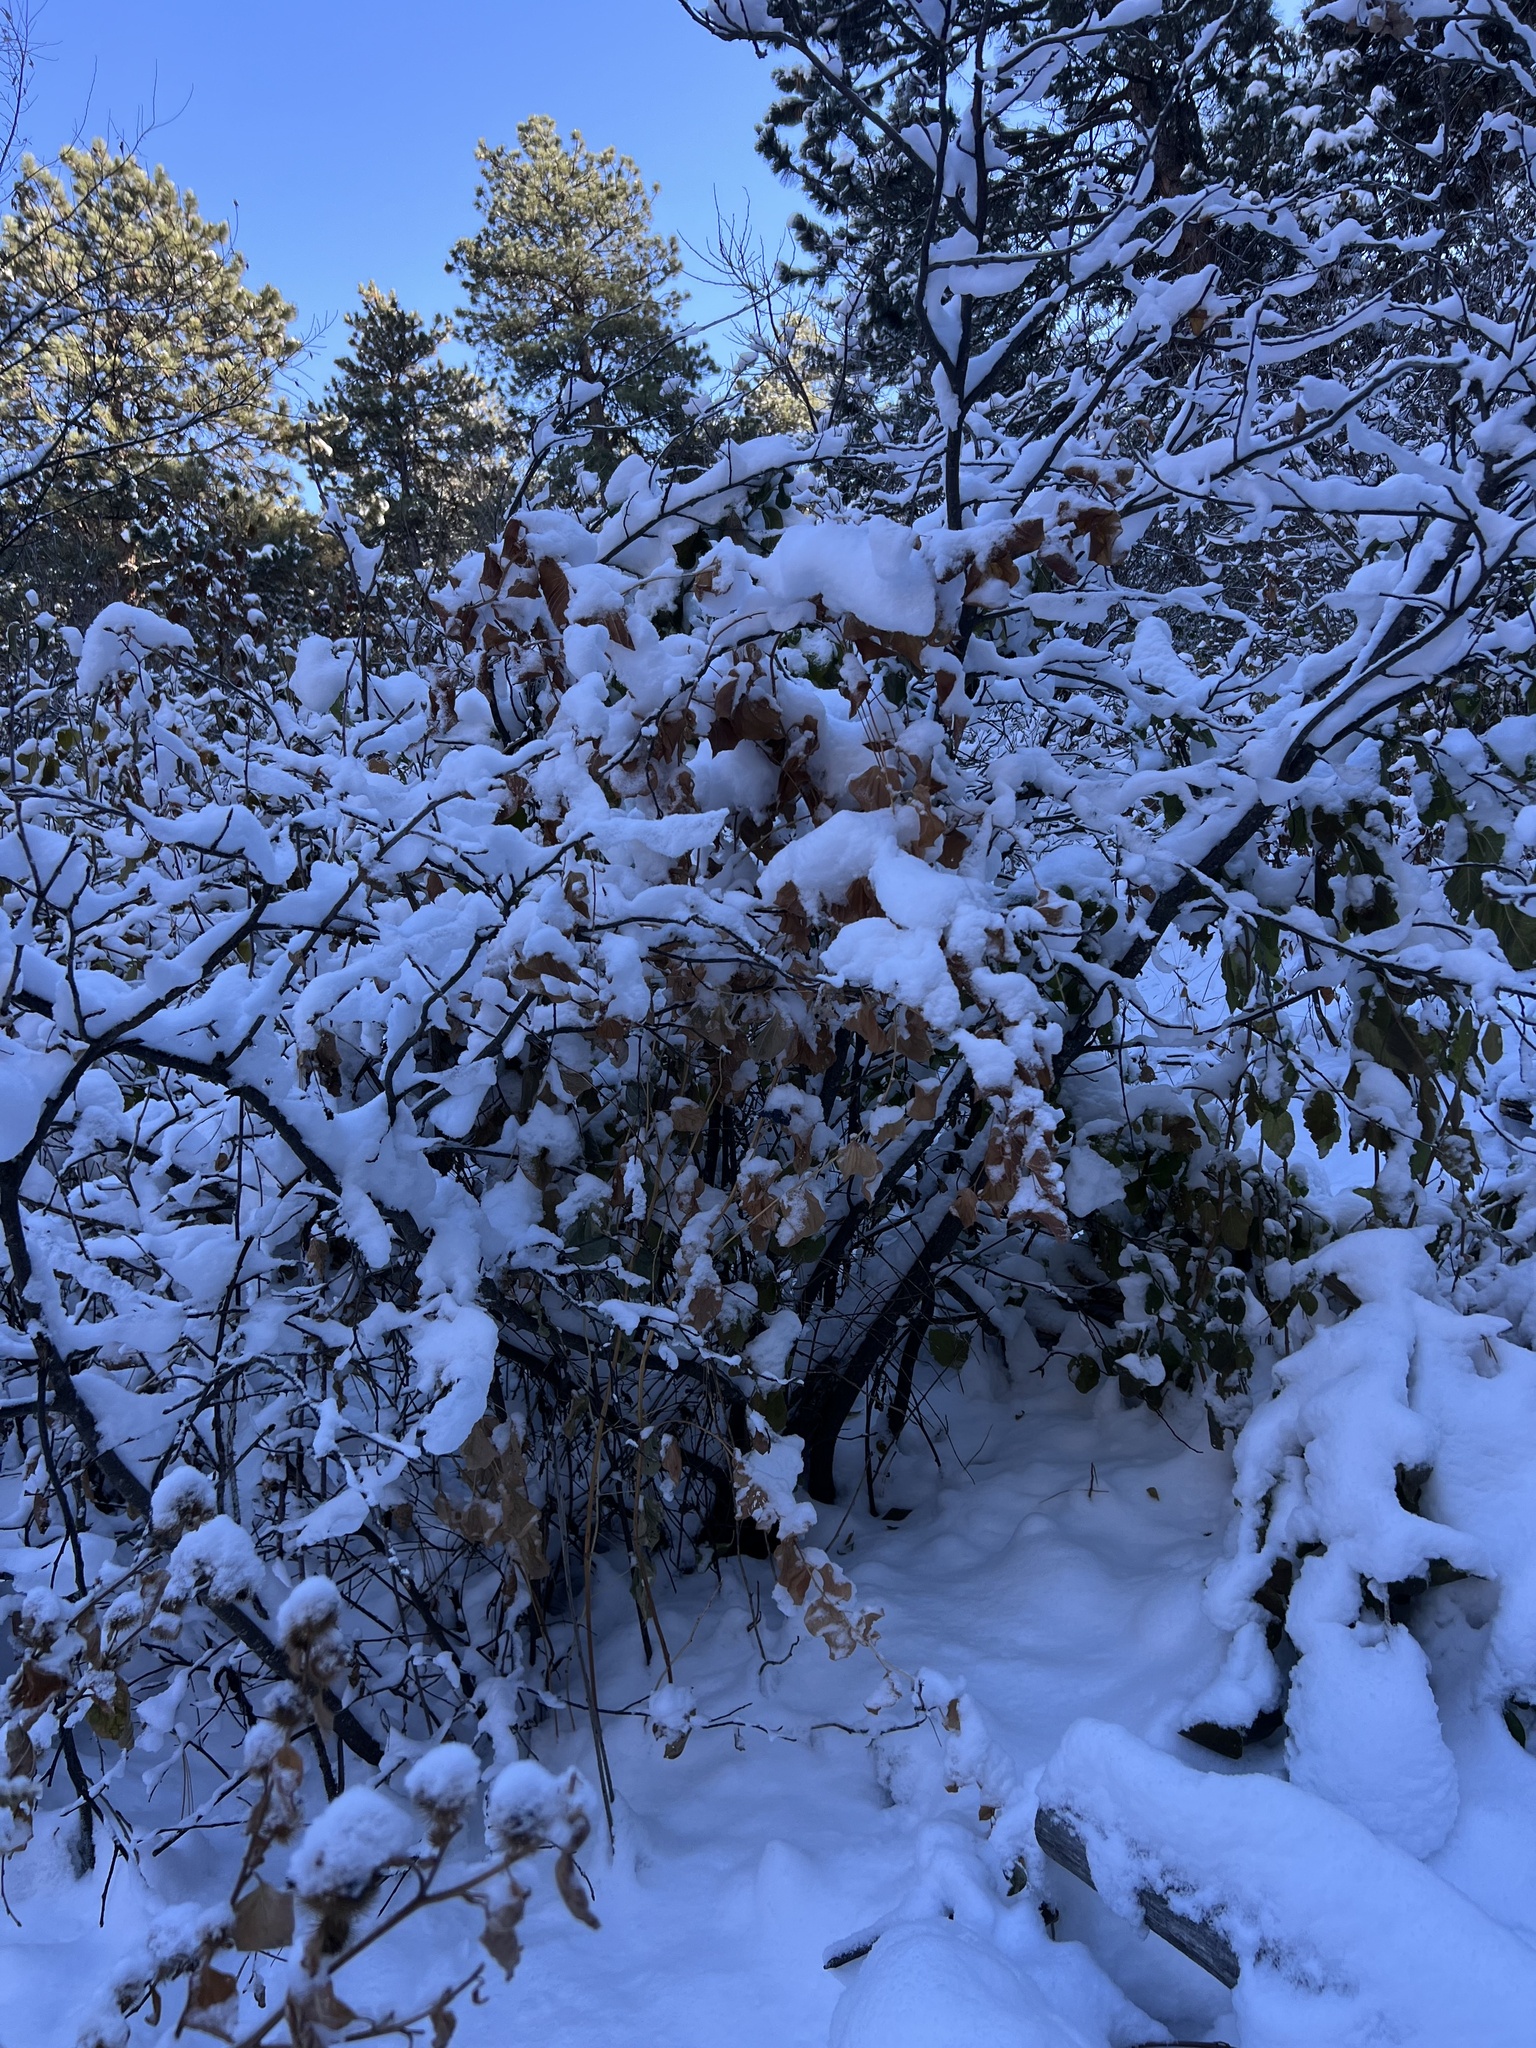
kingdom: Plantae
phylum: Tracheophyta
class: Liliopsida
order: Liliales
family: Smilacaceae
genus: Smilax
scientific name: Smilax lasioneura
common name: Blue ridge carrionflower
